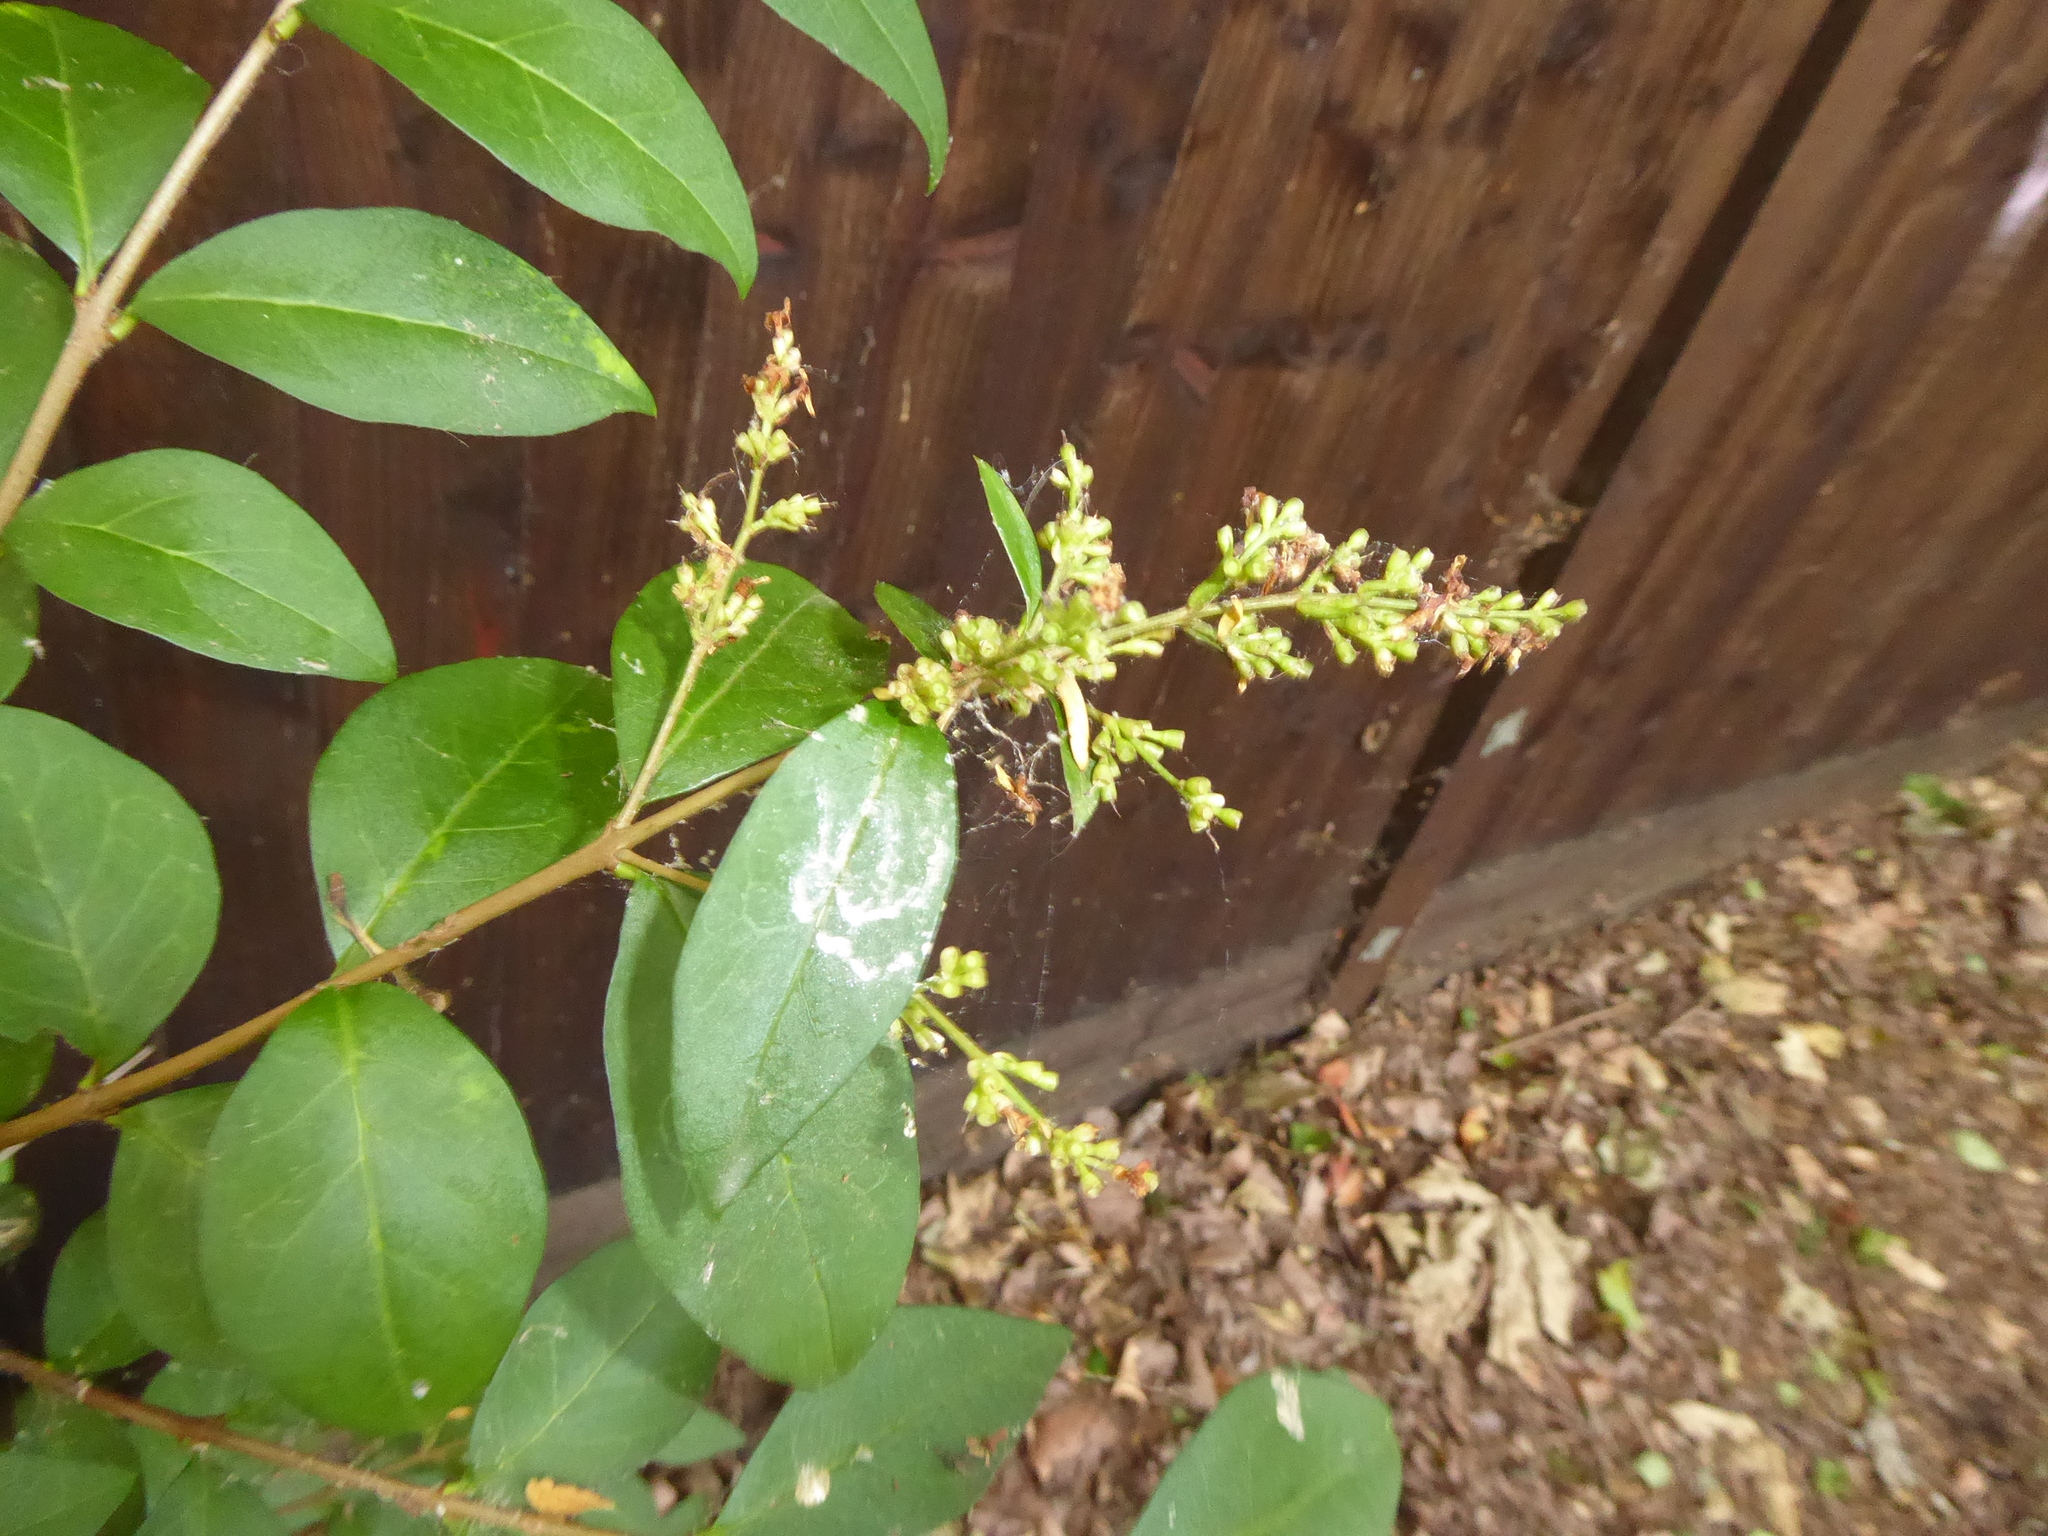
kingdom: Plantae
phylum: Tracheophyta
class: Magnoliopsida
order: Lamiales
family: Oleaceae
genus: Ligustrum
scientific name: Ligustrum ovalifolium
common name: California privet
